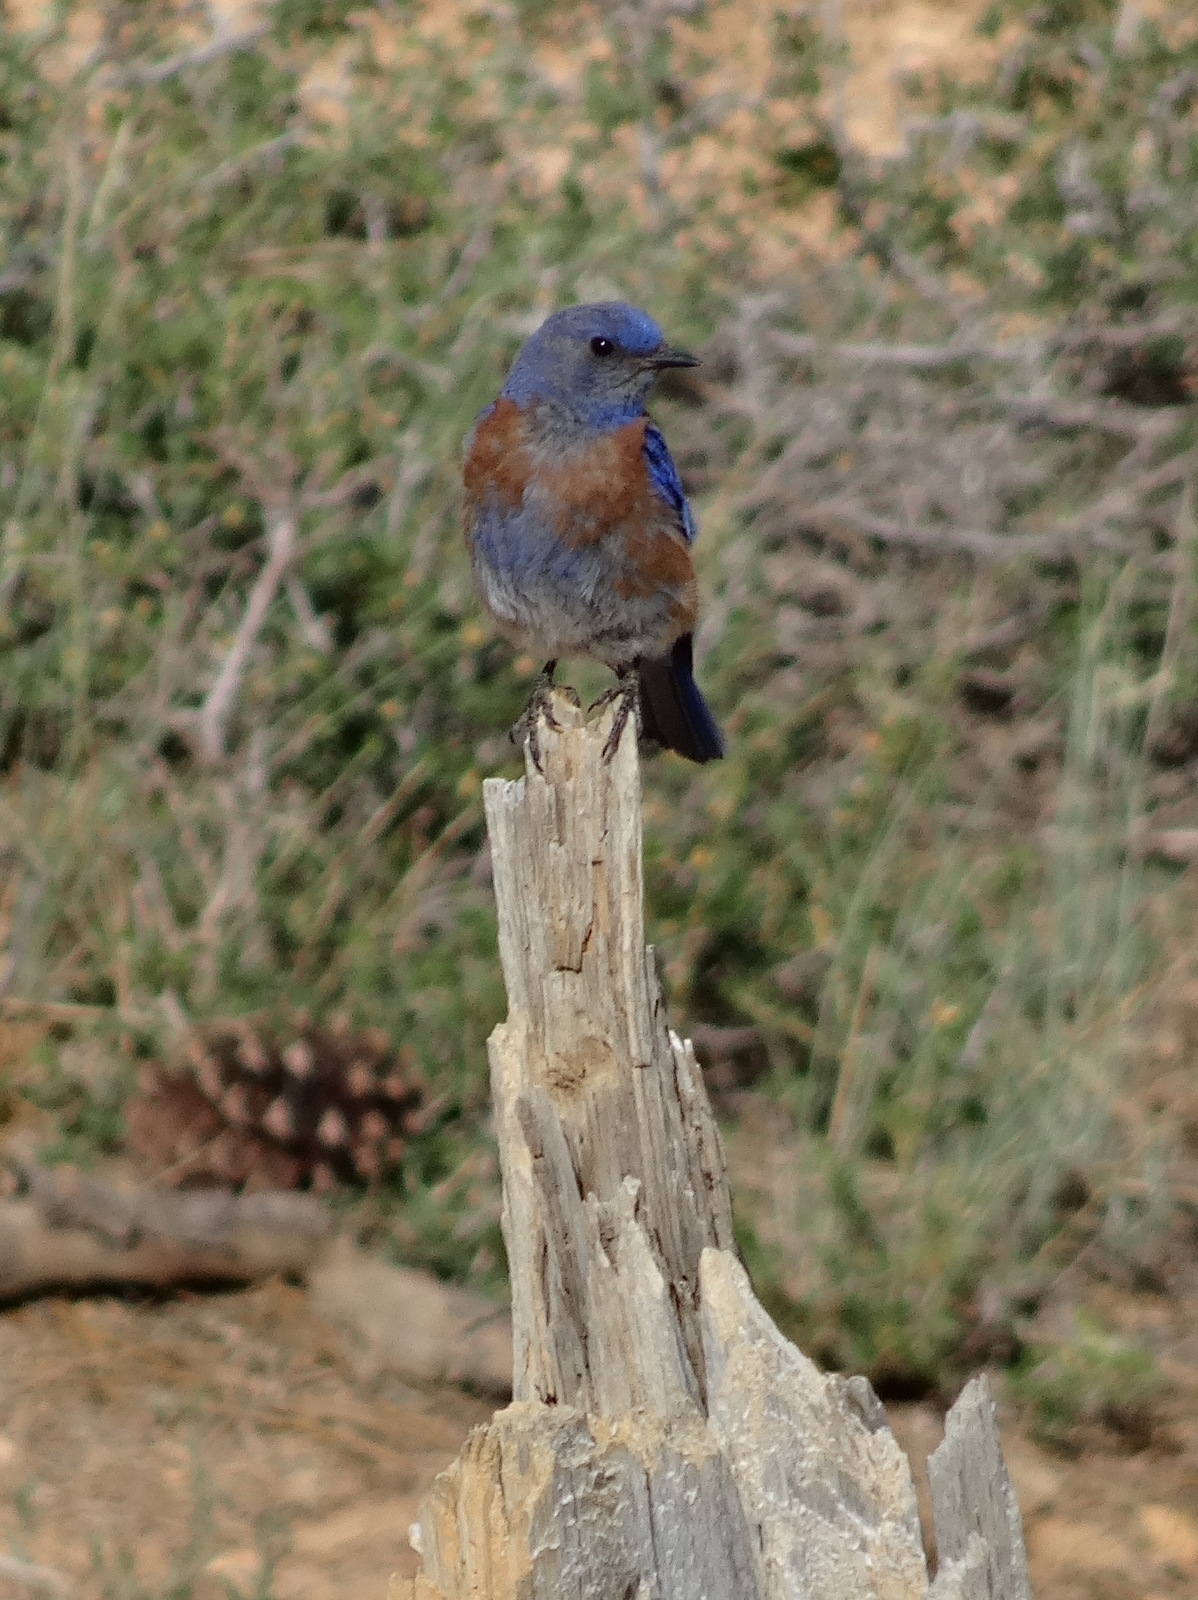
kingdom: Animalia
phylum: Chordata
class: Aves
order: Passeriformes
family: Turdidae
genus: Sialia
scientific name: Sialia mexicana
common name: Western bluebird
